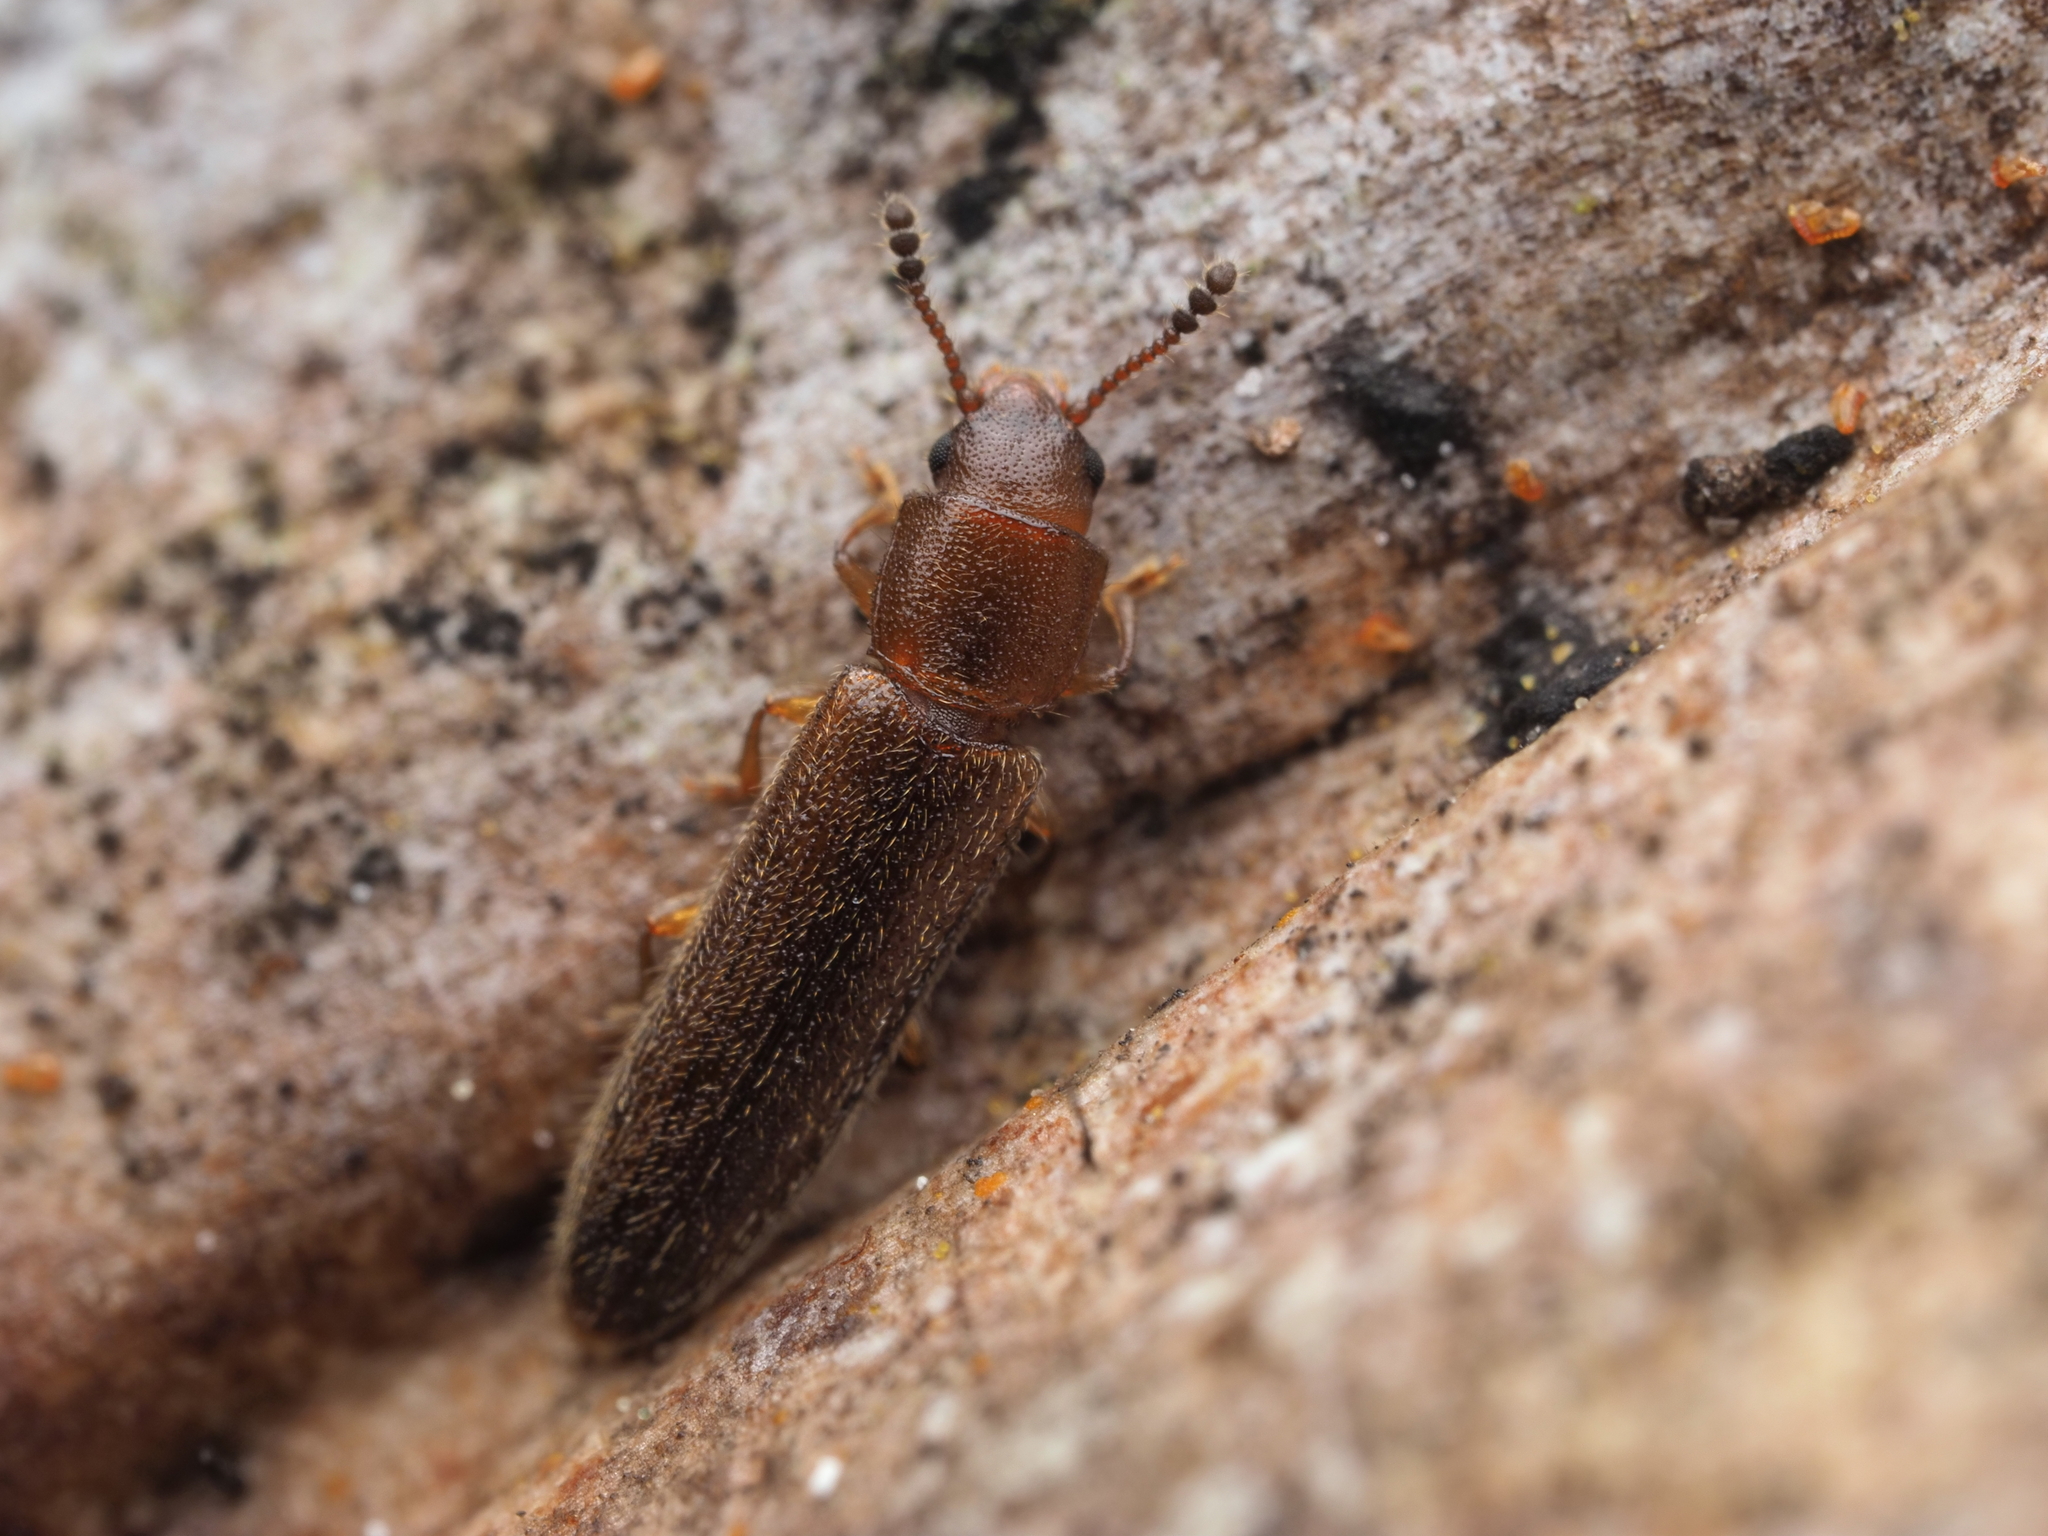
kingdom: Animalia
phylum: Arthropoda
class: Insecta
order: Coleoptera
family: Erotylidae
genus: Hapalips
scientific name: Hapalips prolixus
